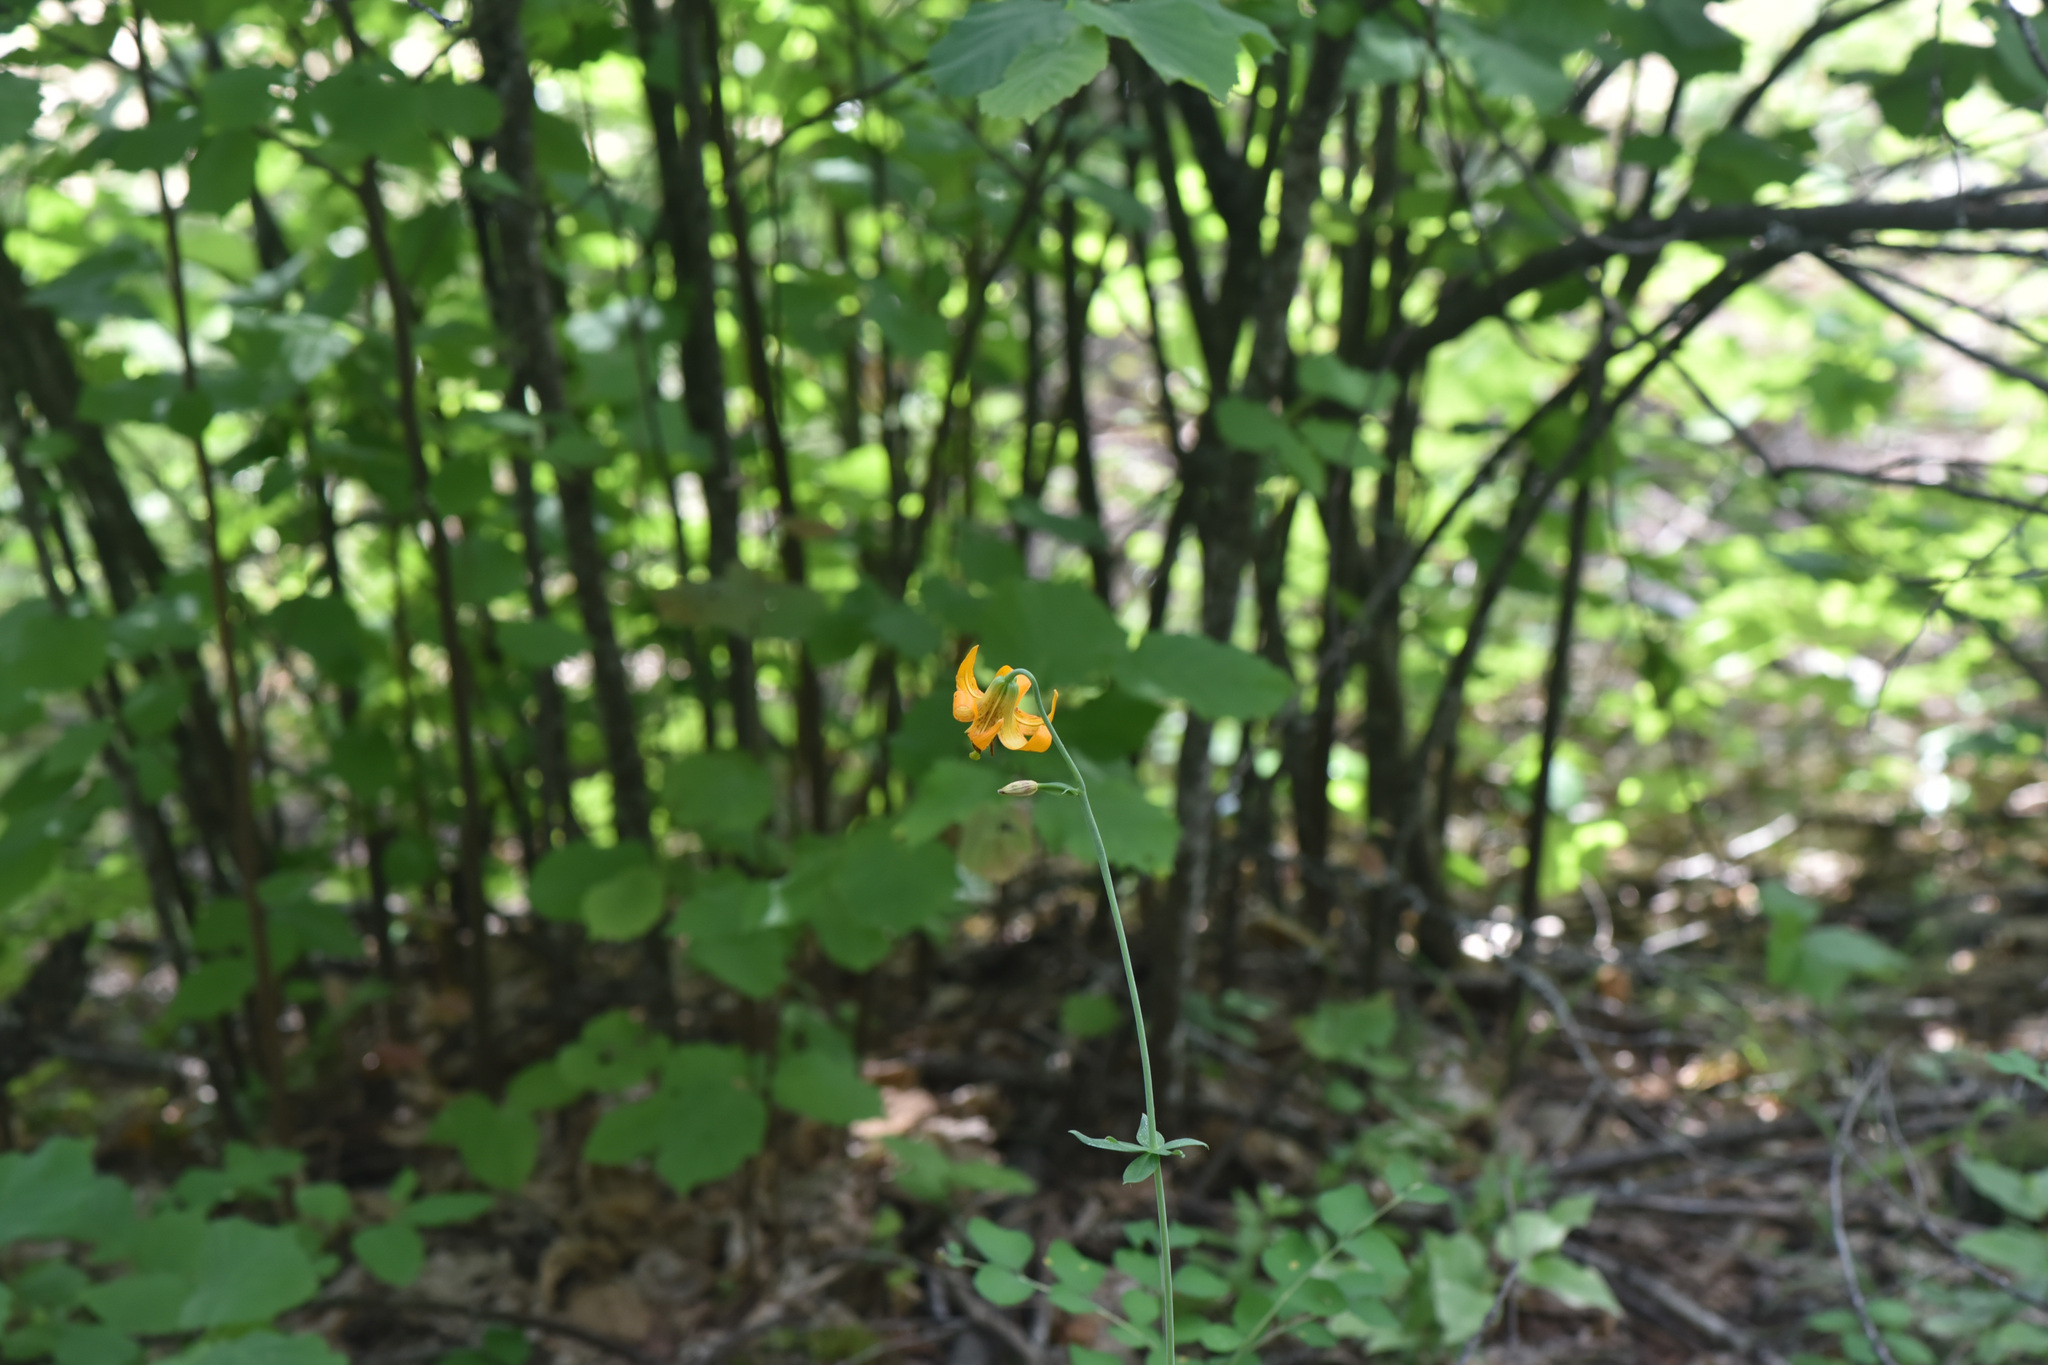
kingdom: Plantae
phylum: Tracheophyta
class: Liliopsida
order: Liliales
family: Liliaceae
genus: Lilium
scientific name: Lilium columbianum
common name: Columbia lily
